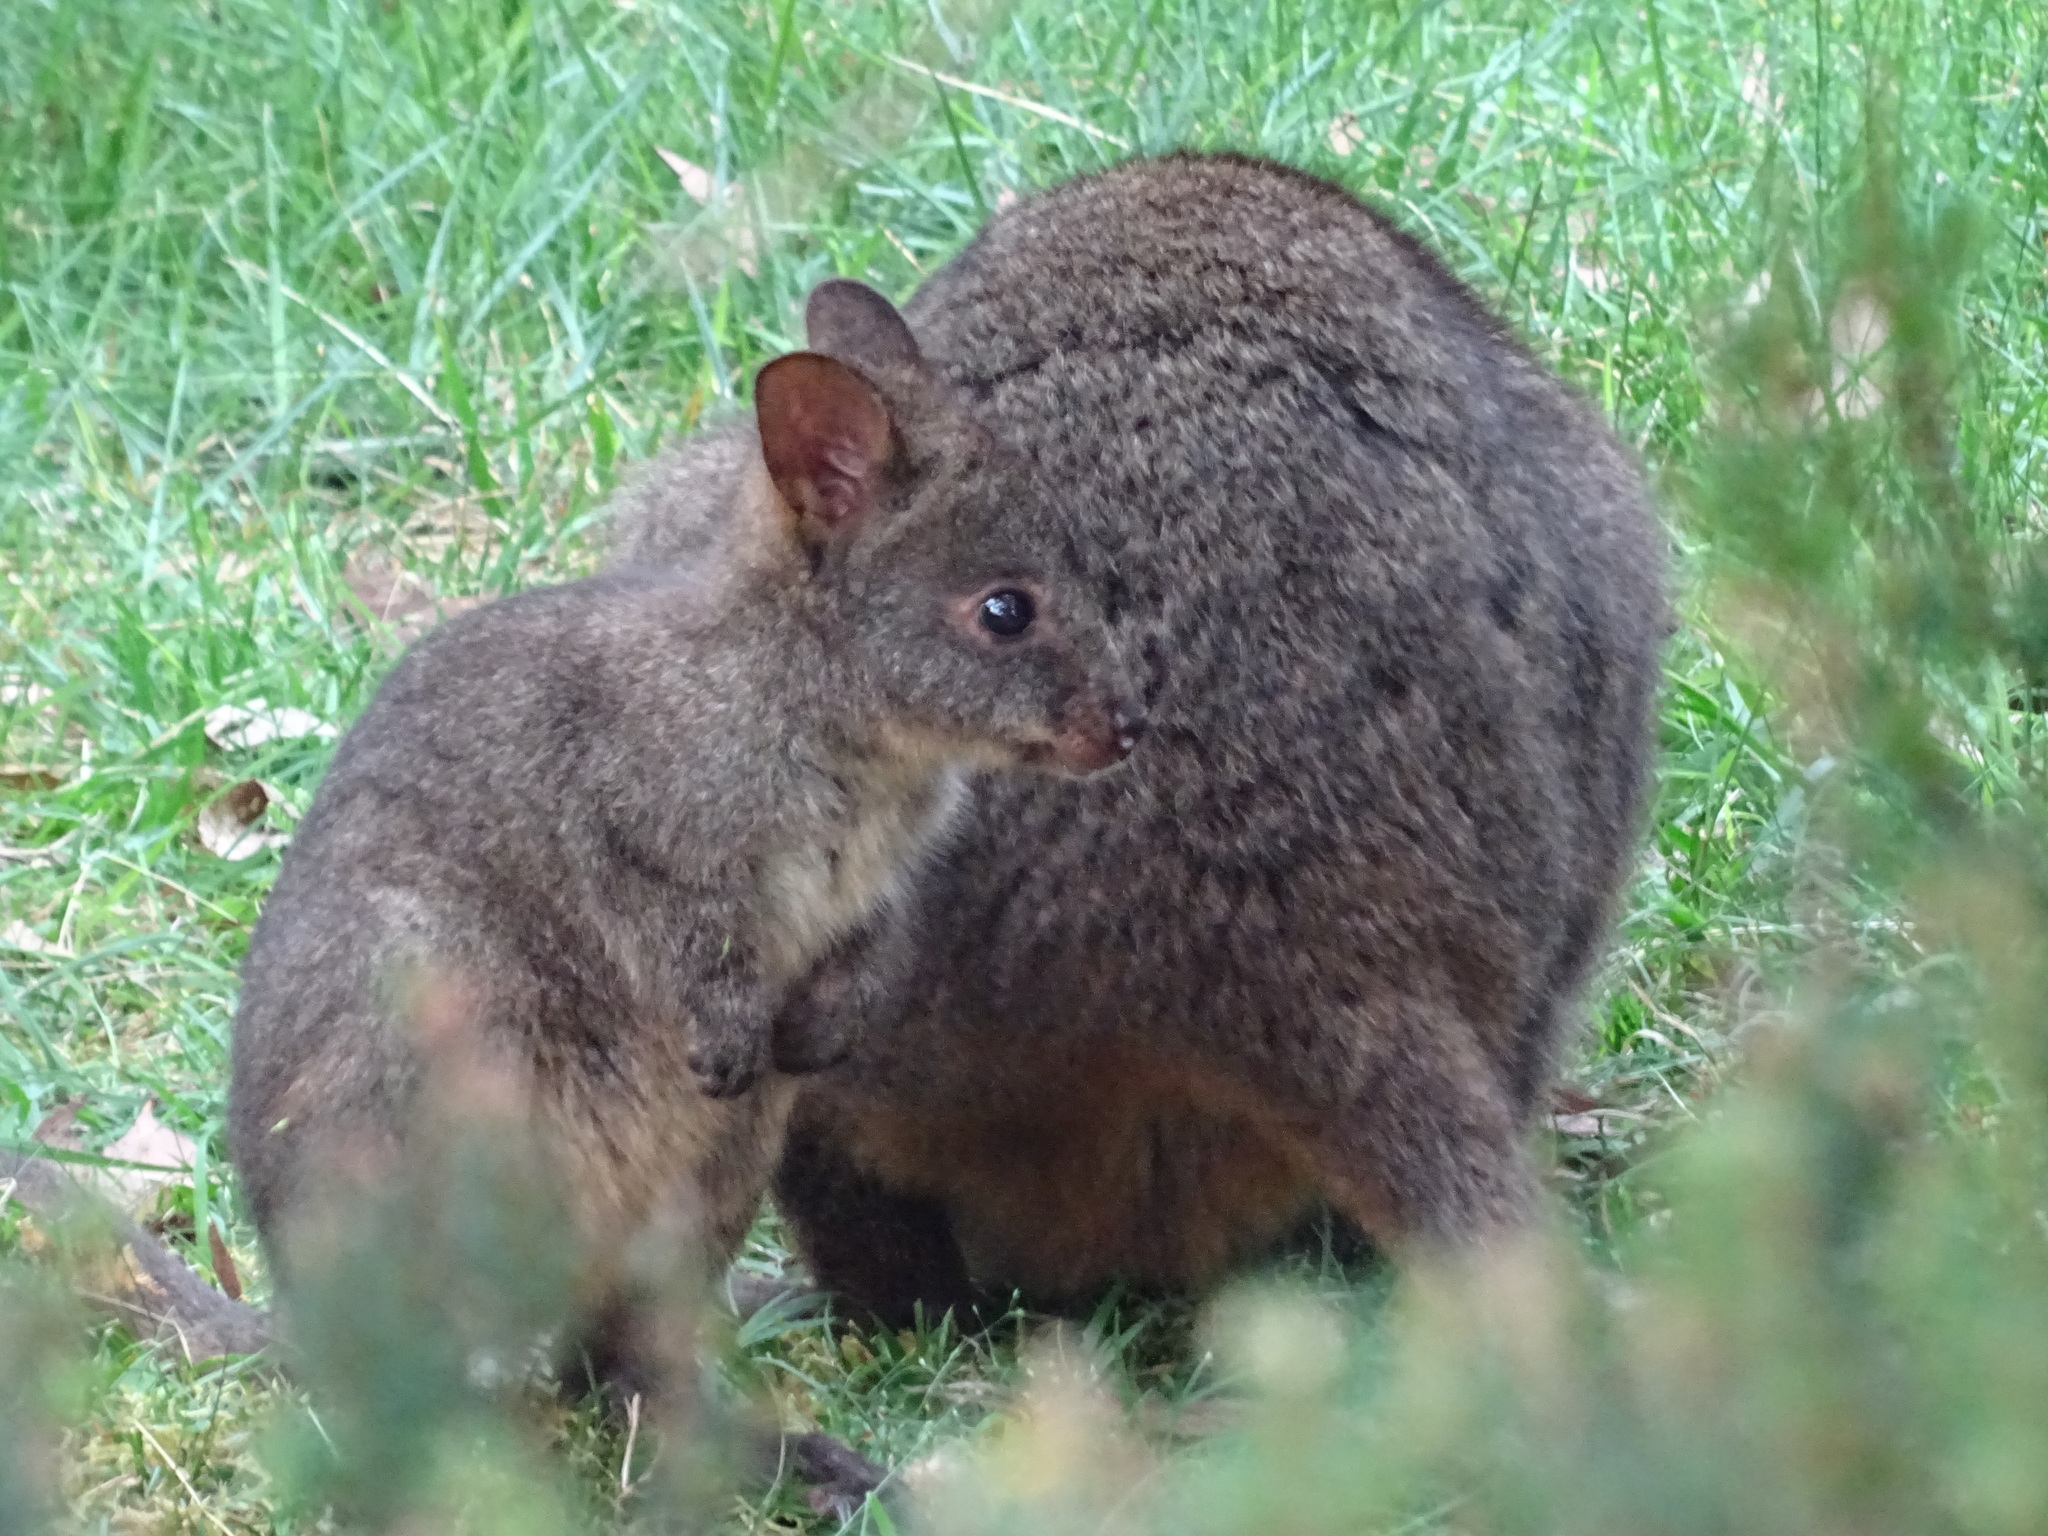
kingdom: Animalia
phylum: Chordata
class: Mammalia
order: Diprotodontia
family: Macropodidae
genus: Thylogale
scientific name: Thylogale billardierii
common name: Tasmanian pademelon
